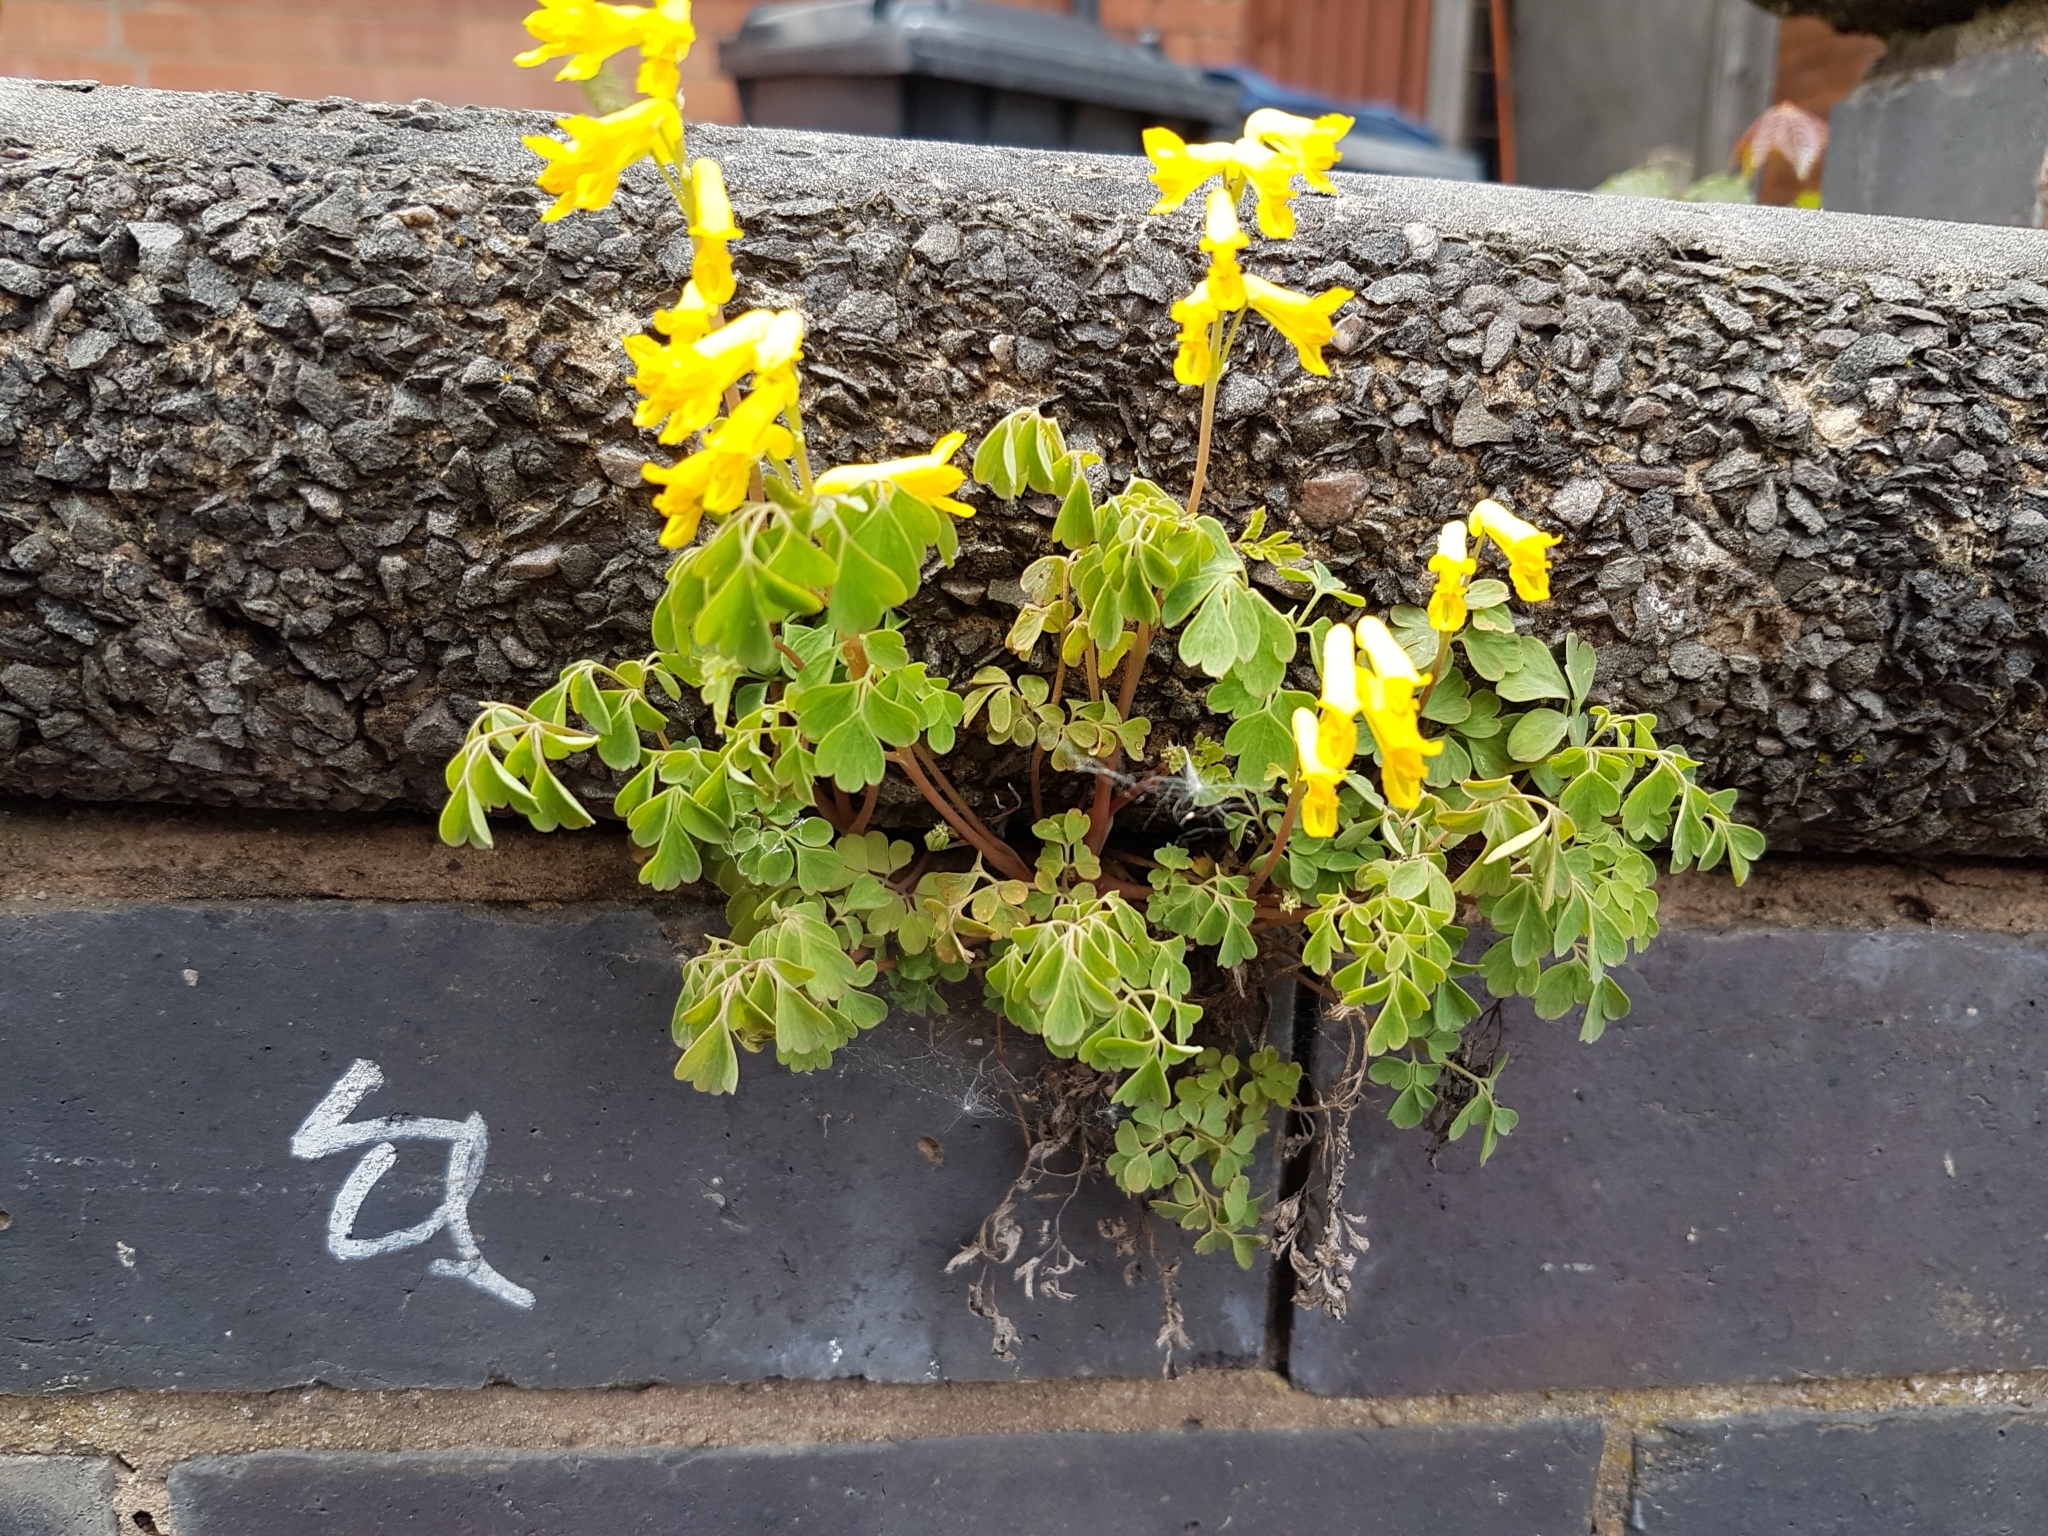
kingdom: Plantae
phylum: Tracheophyta
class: Magnoliopsida
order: Ranunculales
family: Papaveraceae
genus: Pseudofumaria
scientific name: Pseudofumaria lutea
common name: Yellow corydalis
